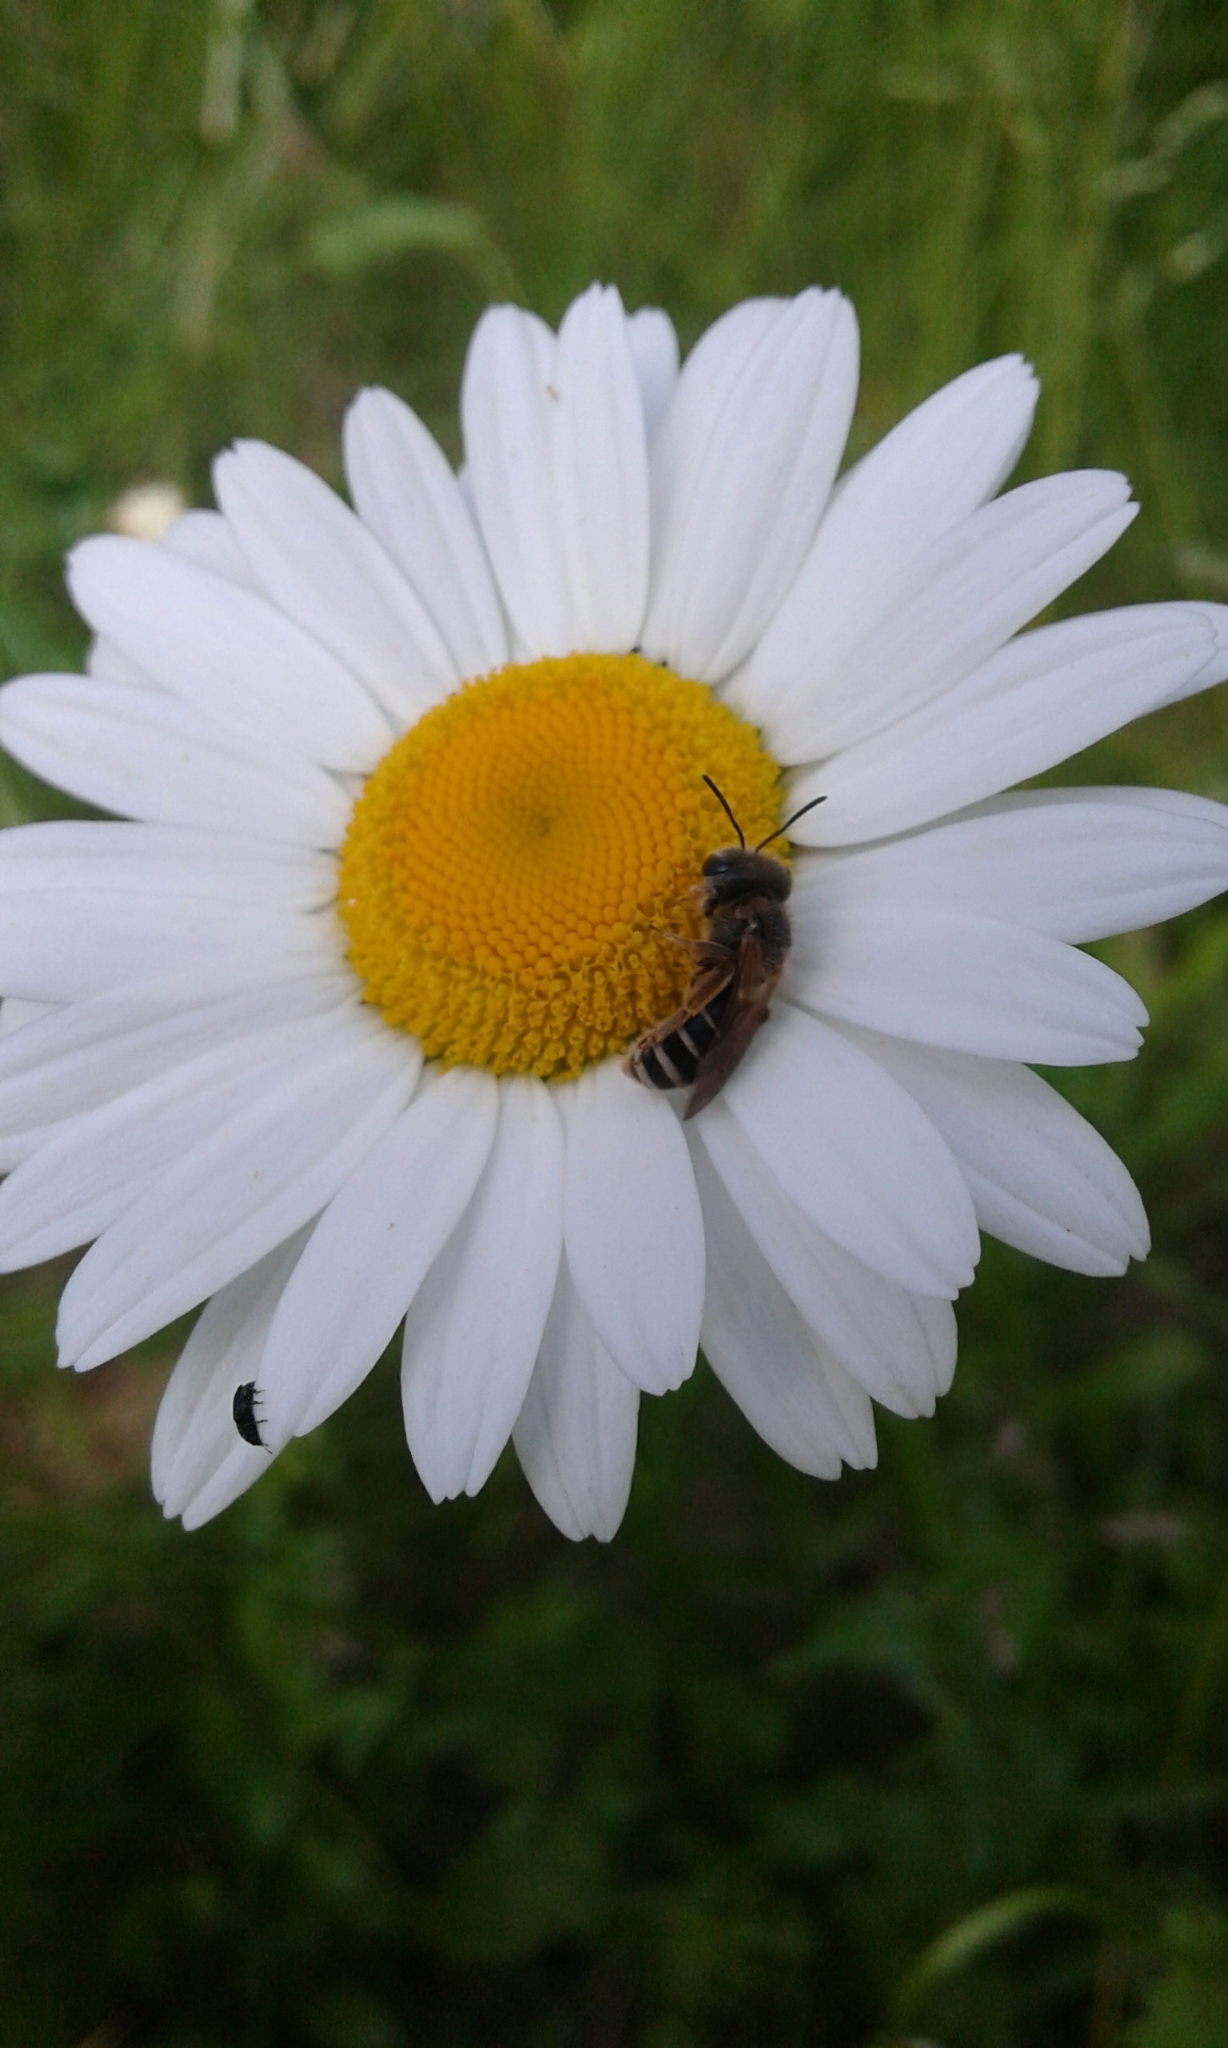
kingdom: Animalia
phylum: Arthropoda
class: Insecta
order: Hymenoptera
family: Halictidae
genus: Halictus
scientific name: Halictus ligatus
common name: Ligated furrow bee
